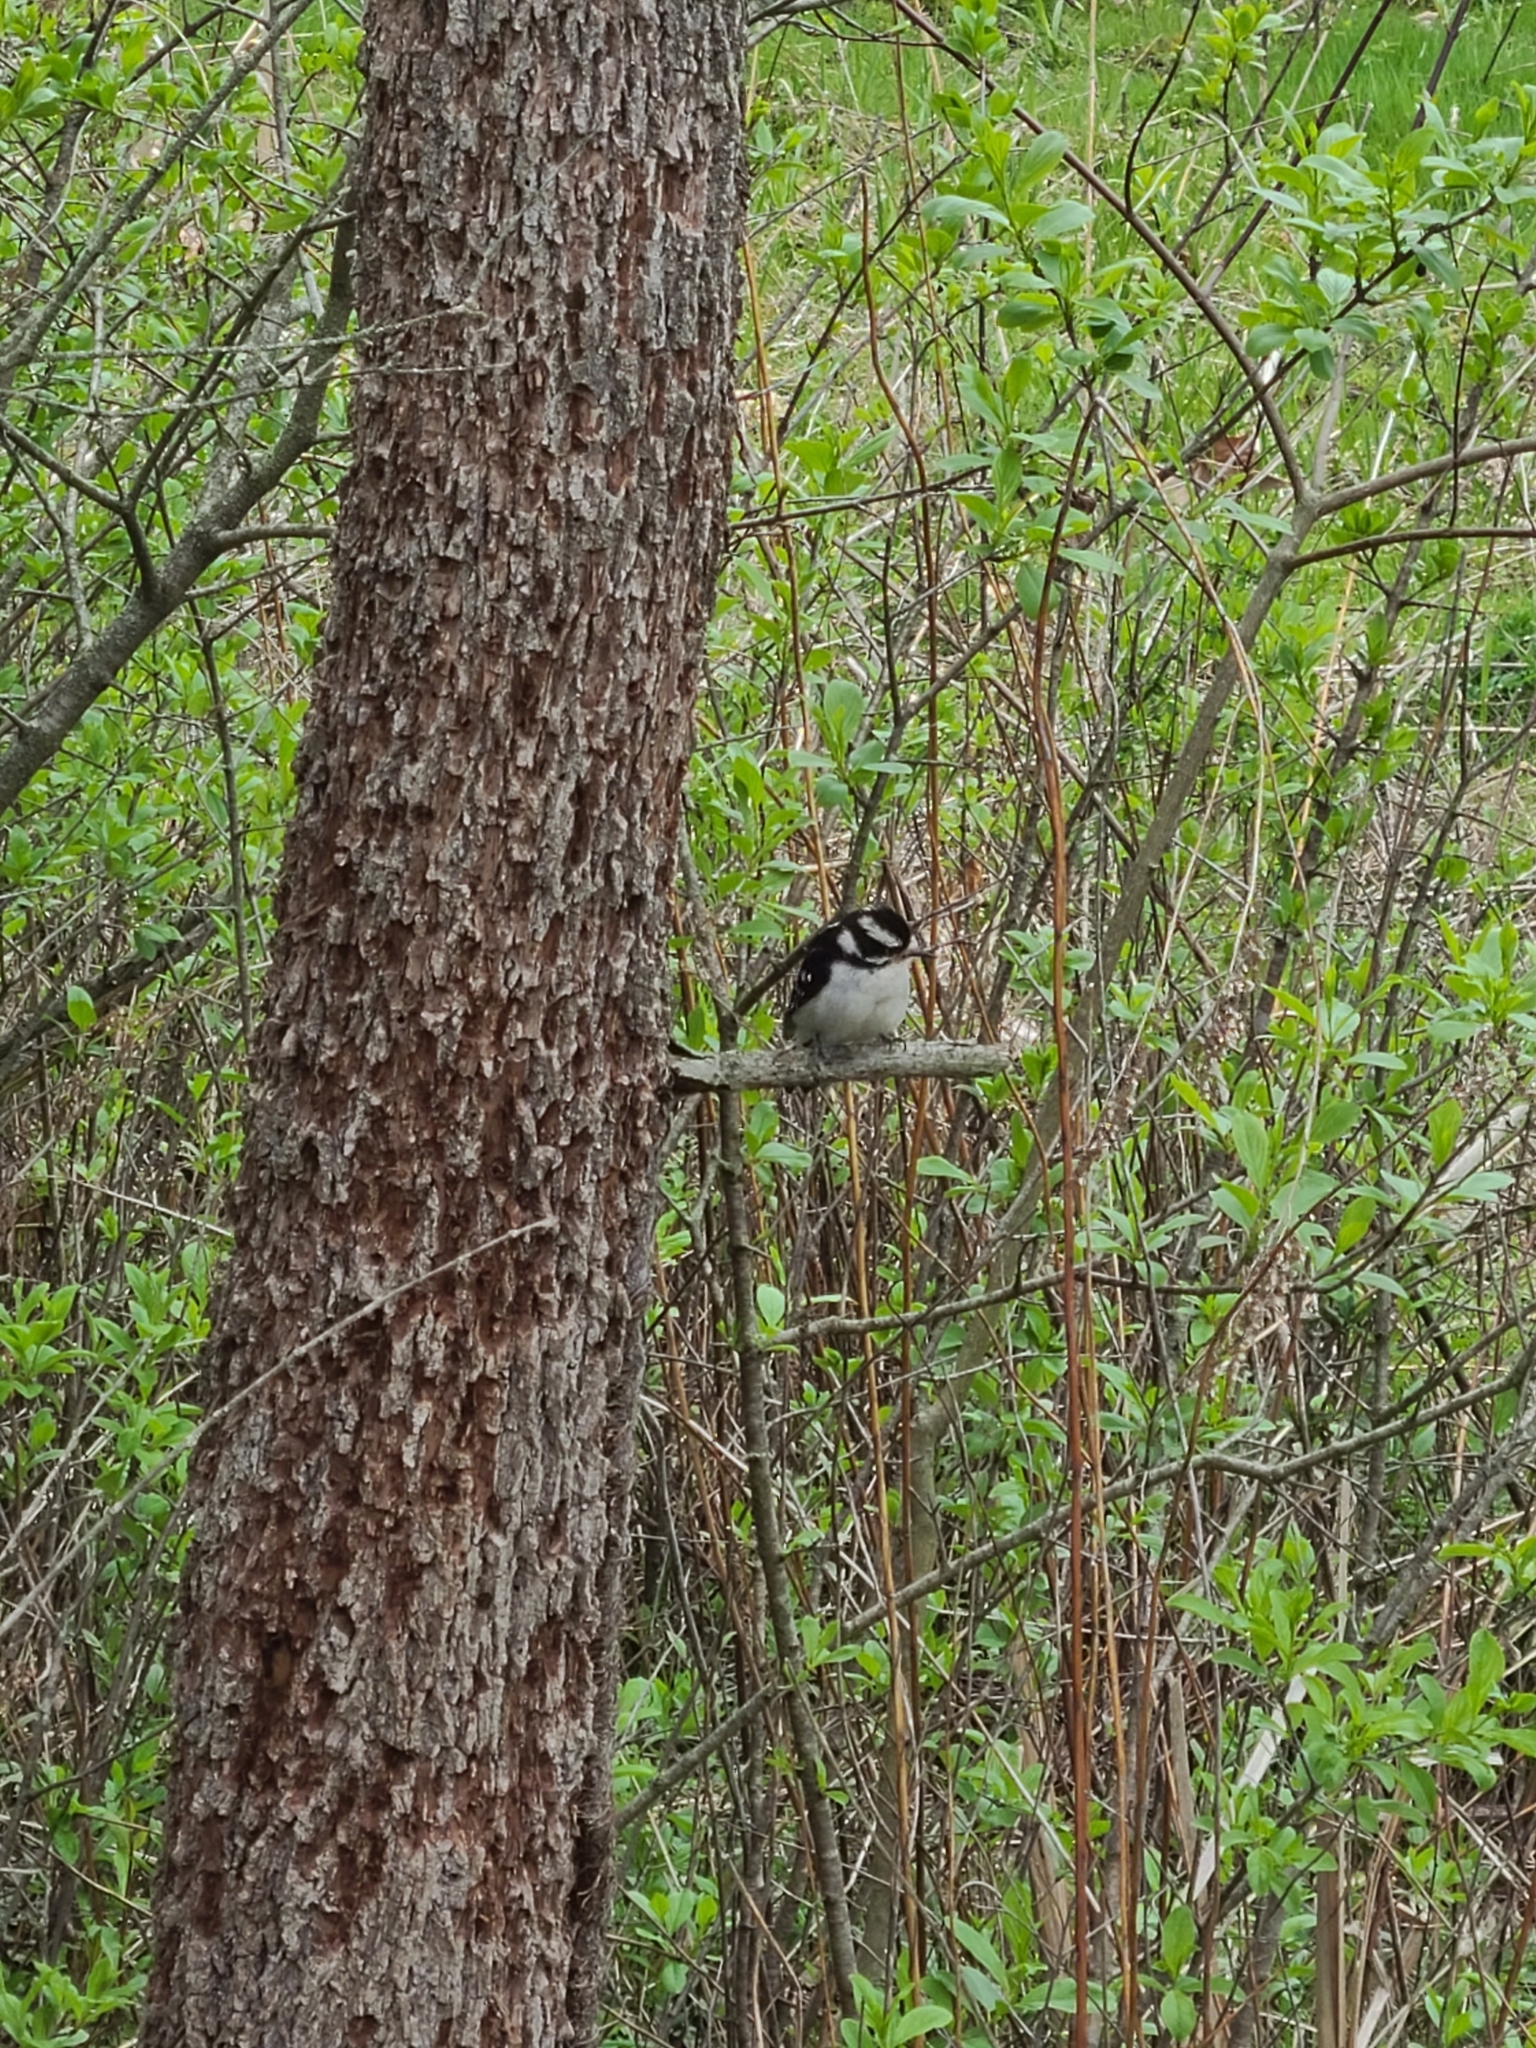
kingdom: Animalia
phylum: Chordata
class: Aves
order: Piciformes
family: Picidae
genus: Dryobates
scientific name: Dryobates pubescens
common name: Downy woodpecker
